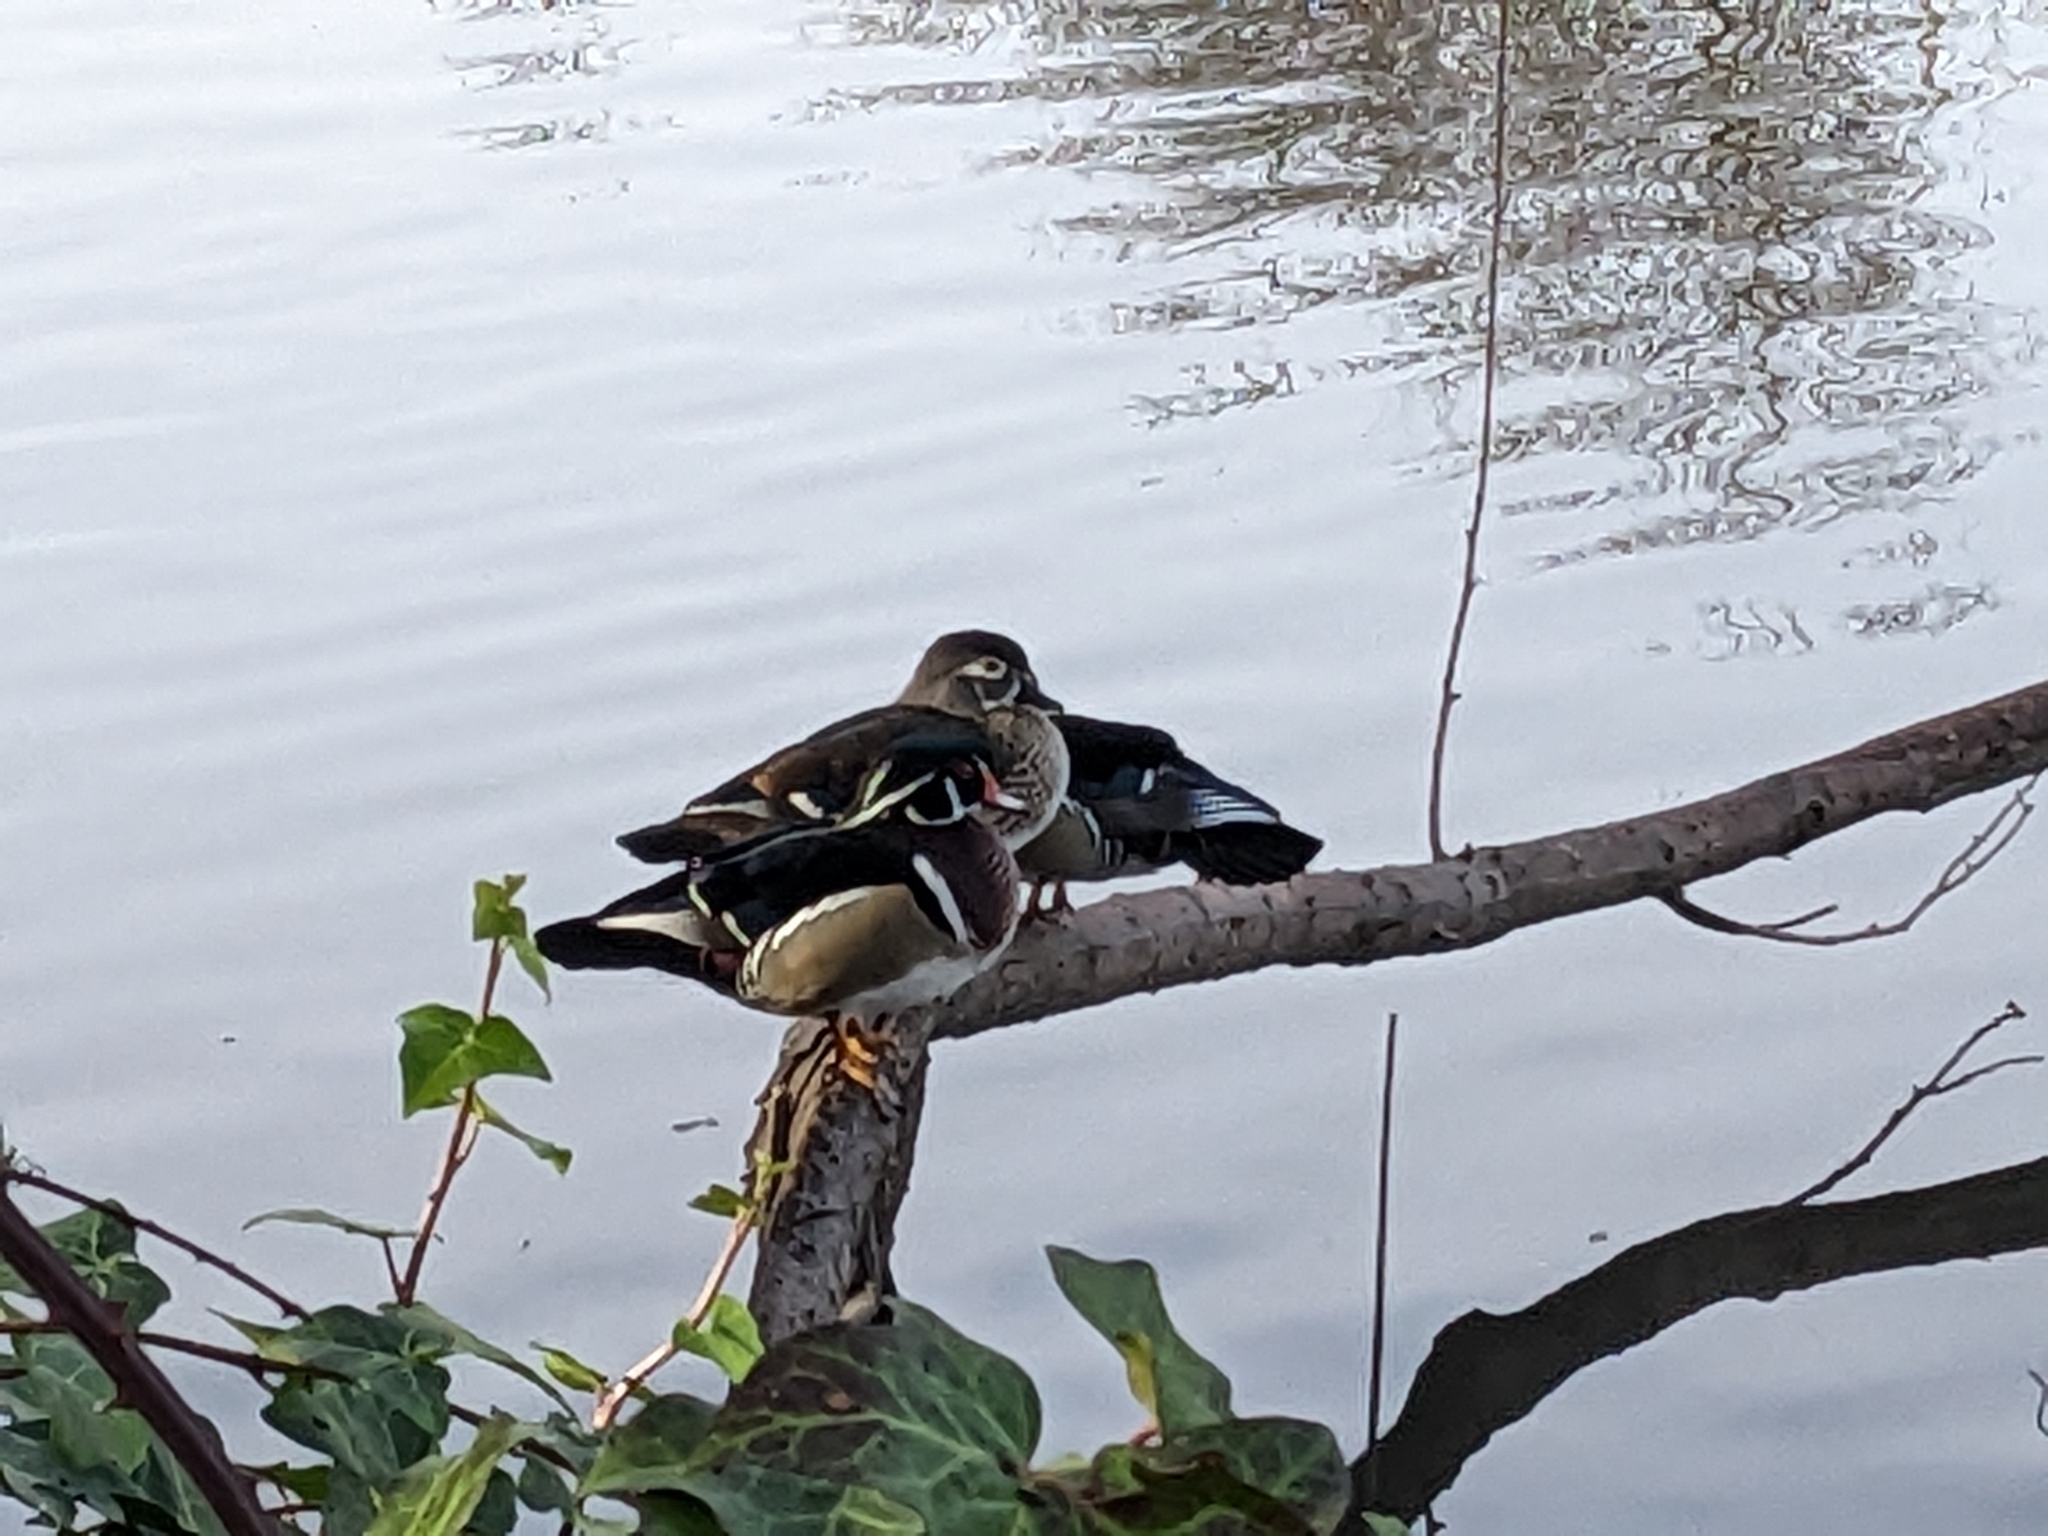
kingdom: Animalia
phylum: Chordata
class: Aves
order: Anseriformes
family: Anatidae
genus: Aix
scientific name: Aix sponsa
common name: Wood duck
